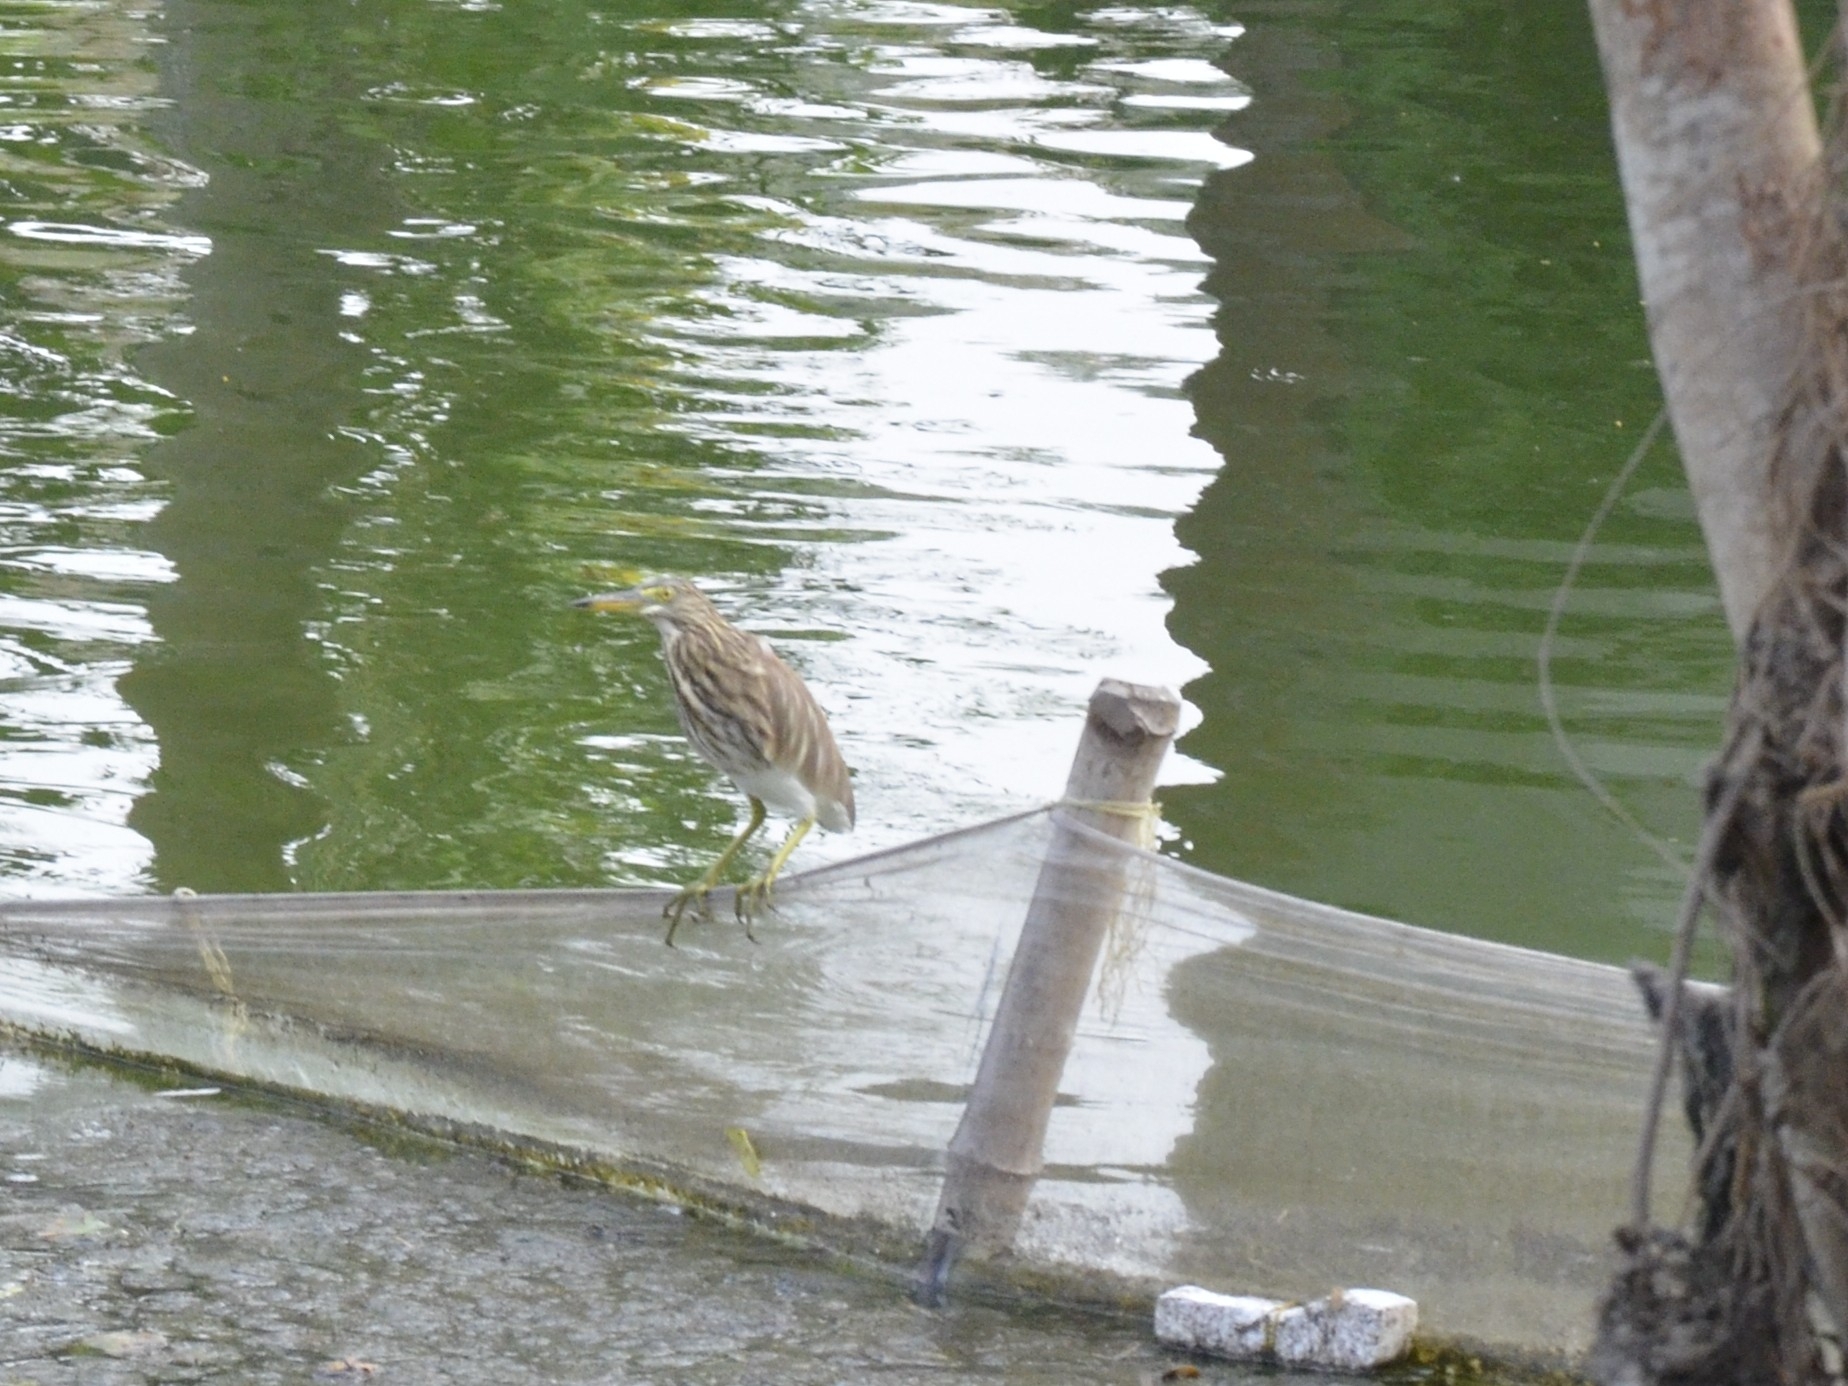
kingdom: Animalia
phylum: Chordata
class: Aves
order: Pelecaniformes
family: Ardeidae
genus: Ardeola
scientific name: Ardeola grayii
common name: Indian pond heron
